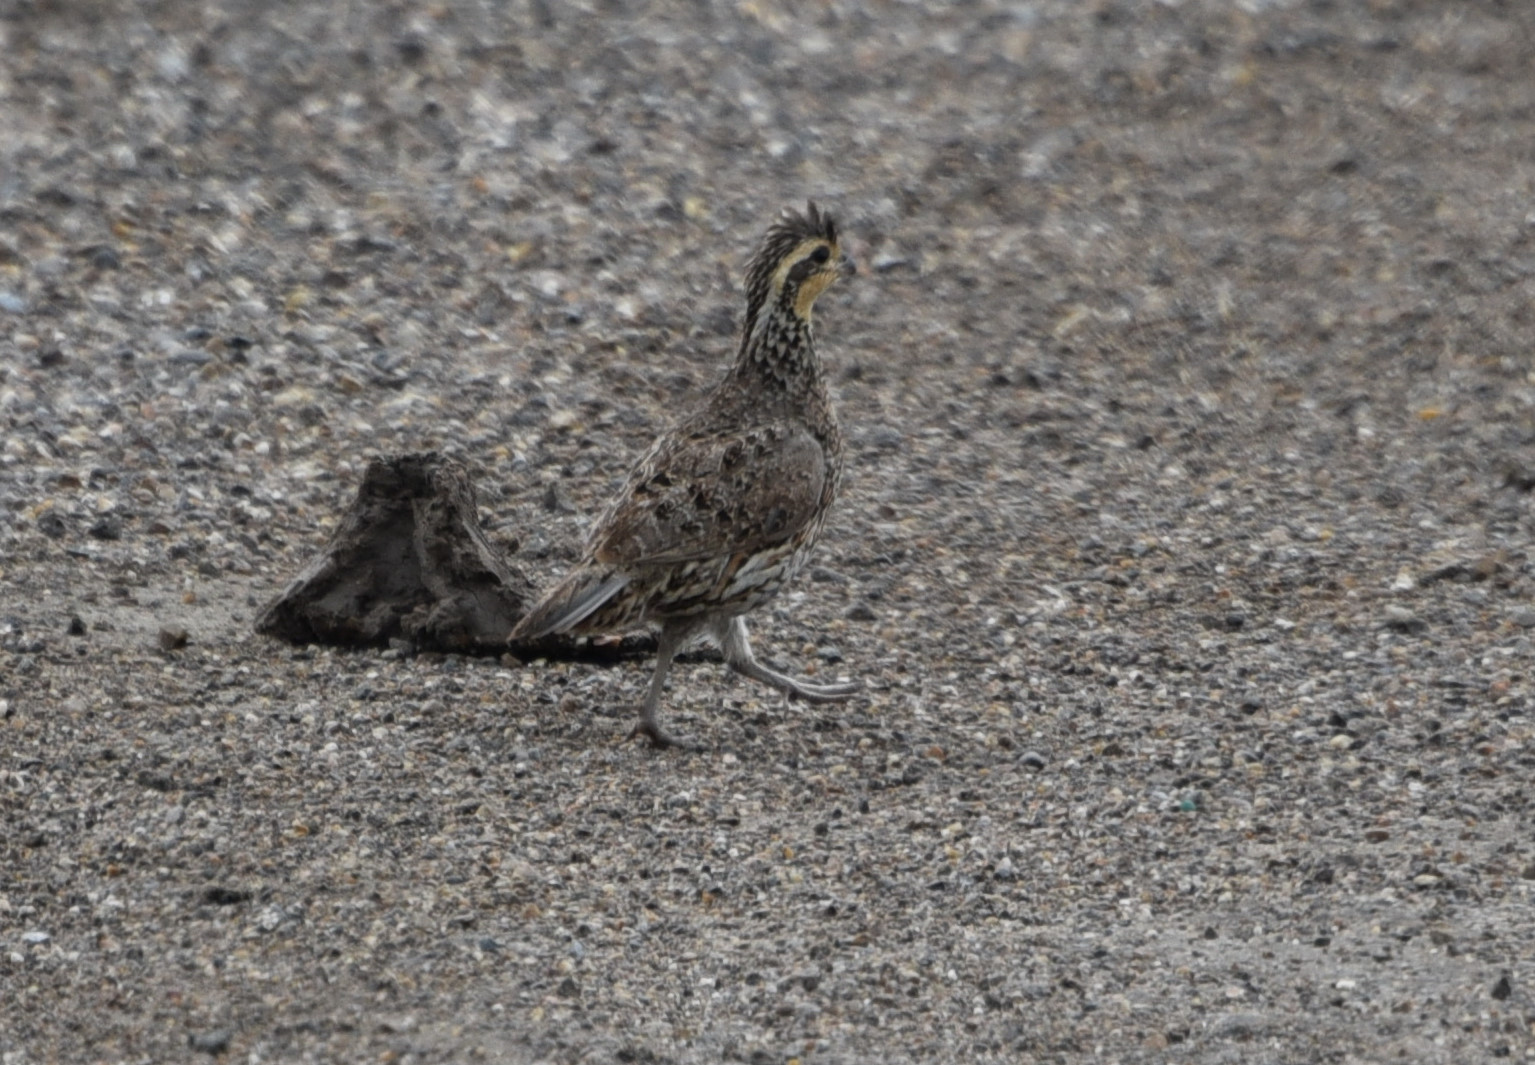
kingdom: Animalia
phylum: Chordata
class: Aves
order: Galliformes
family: Odontophoridae
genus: Colinus
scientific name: Colinus virginianus
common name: Northern bobwhite
